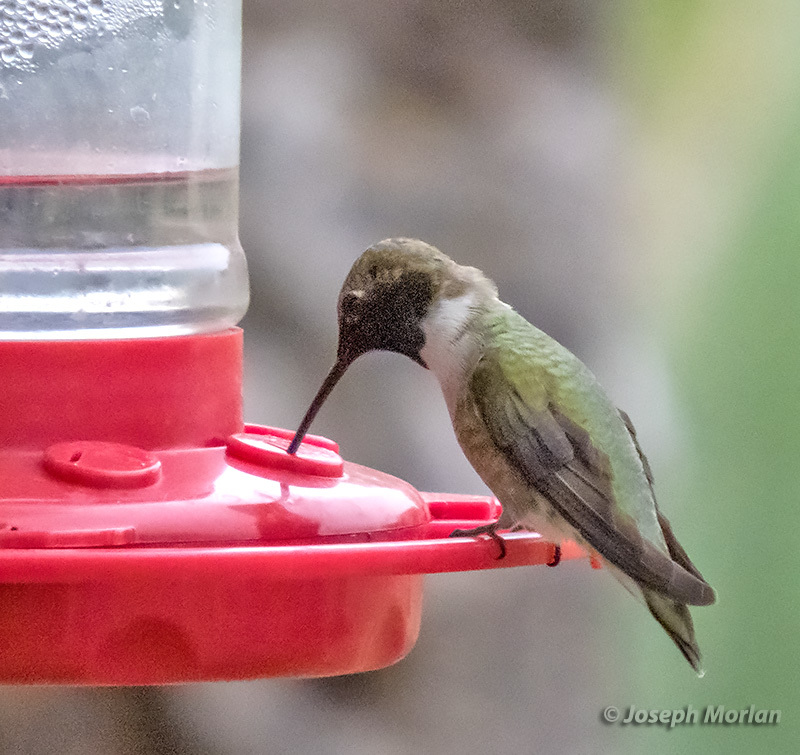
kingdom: Animalia
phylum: Chordata
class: Aves
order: Apodiformes
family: Trochilidae
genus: Archilochus
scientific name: Archilochus alexandri
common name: Black-chinned hummingbird
